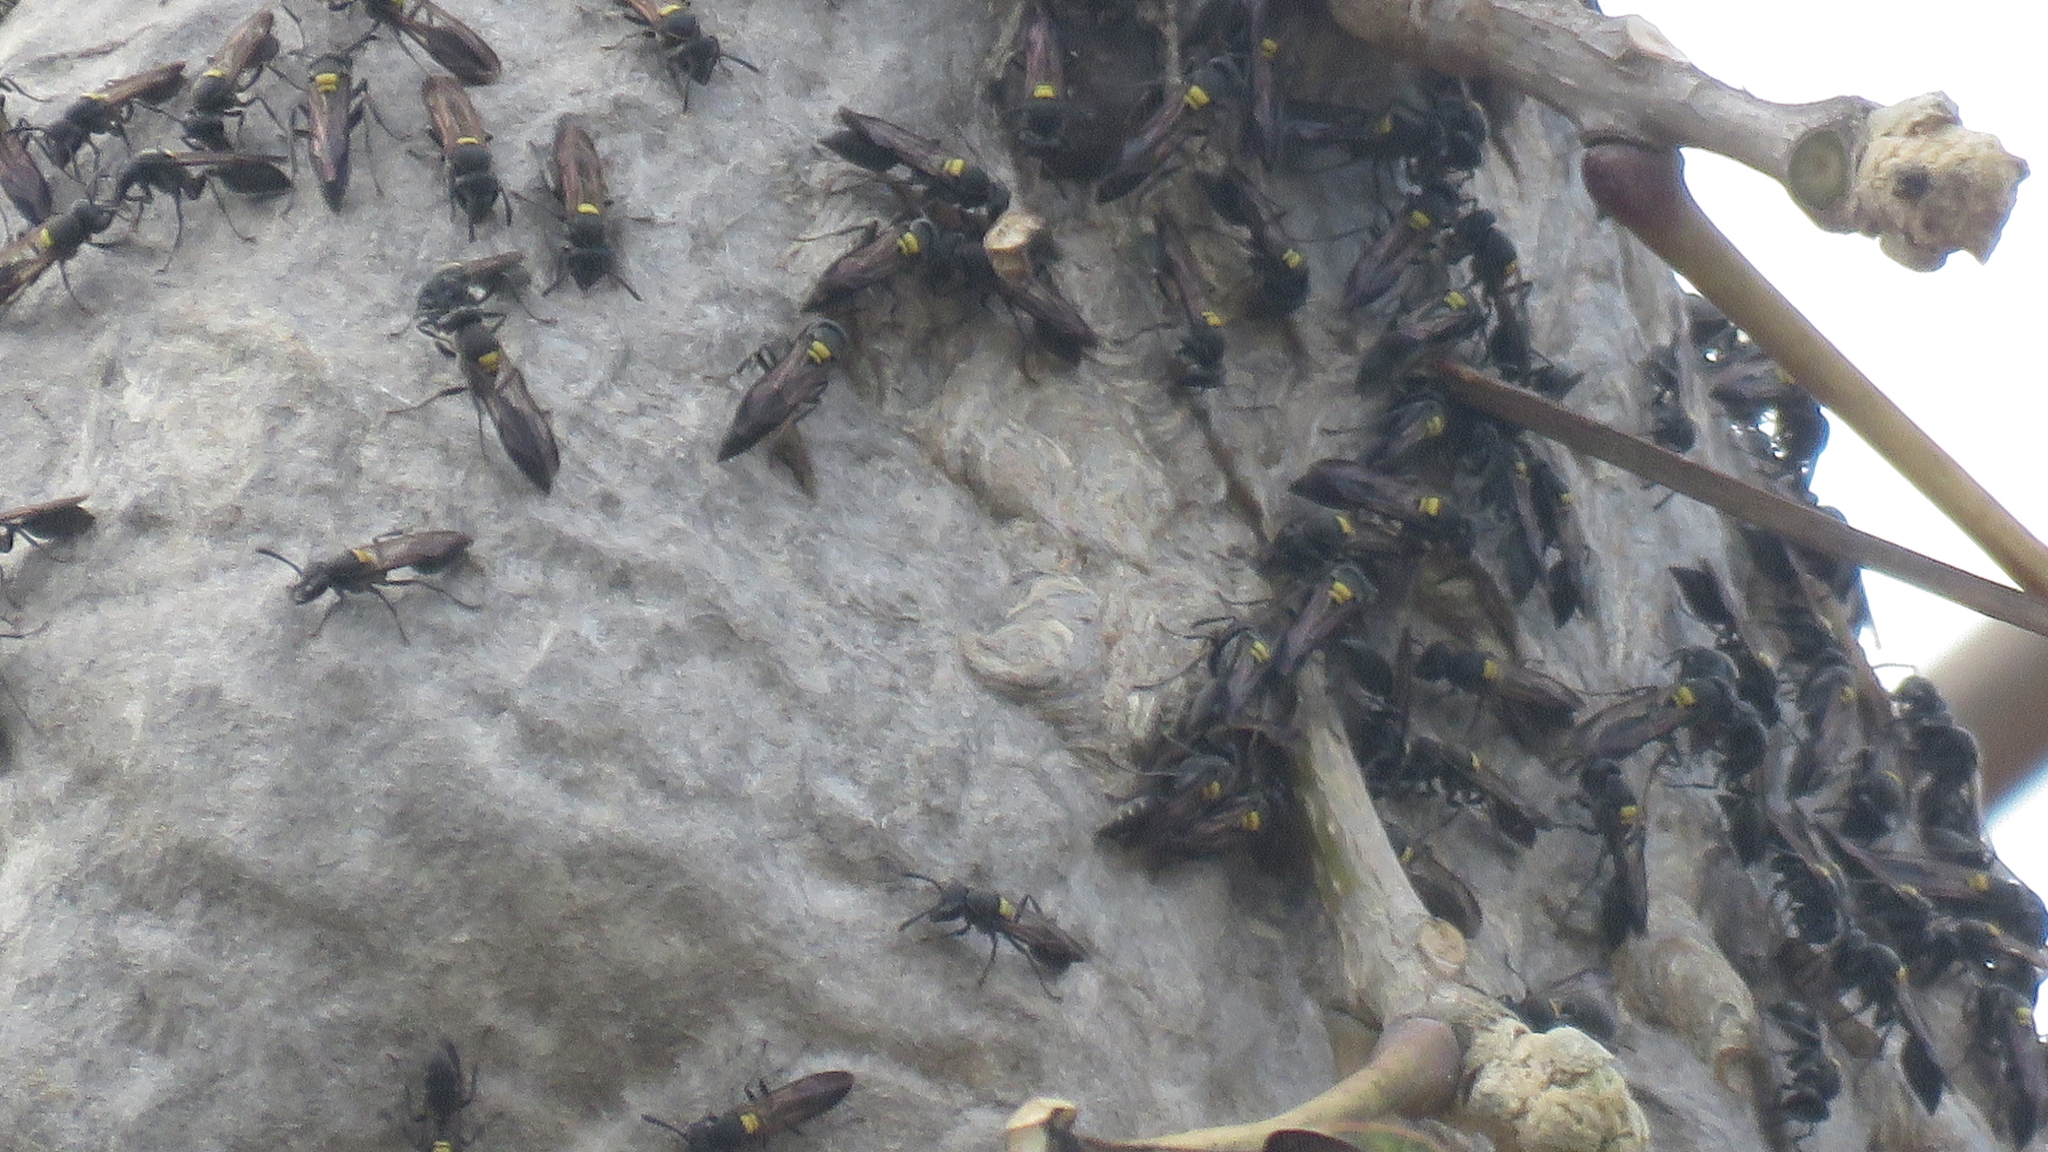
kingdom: Animalia
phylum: Arthropoda
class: Insecta
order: Hymenoptera
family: Eumenidae
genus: Polybia
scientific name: Polybia paulista
